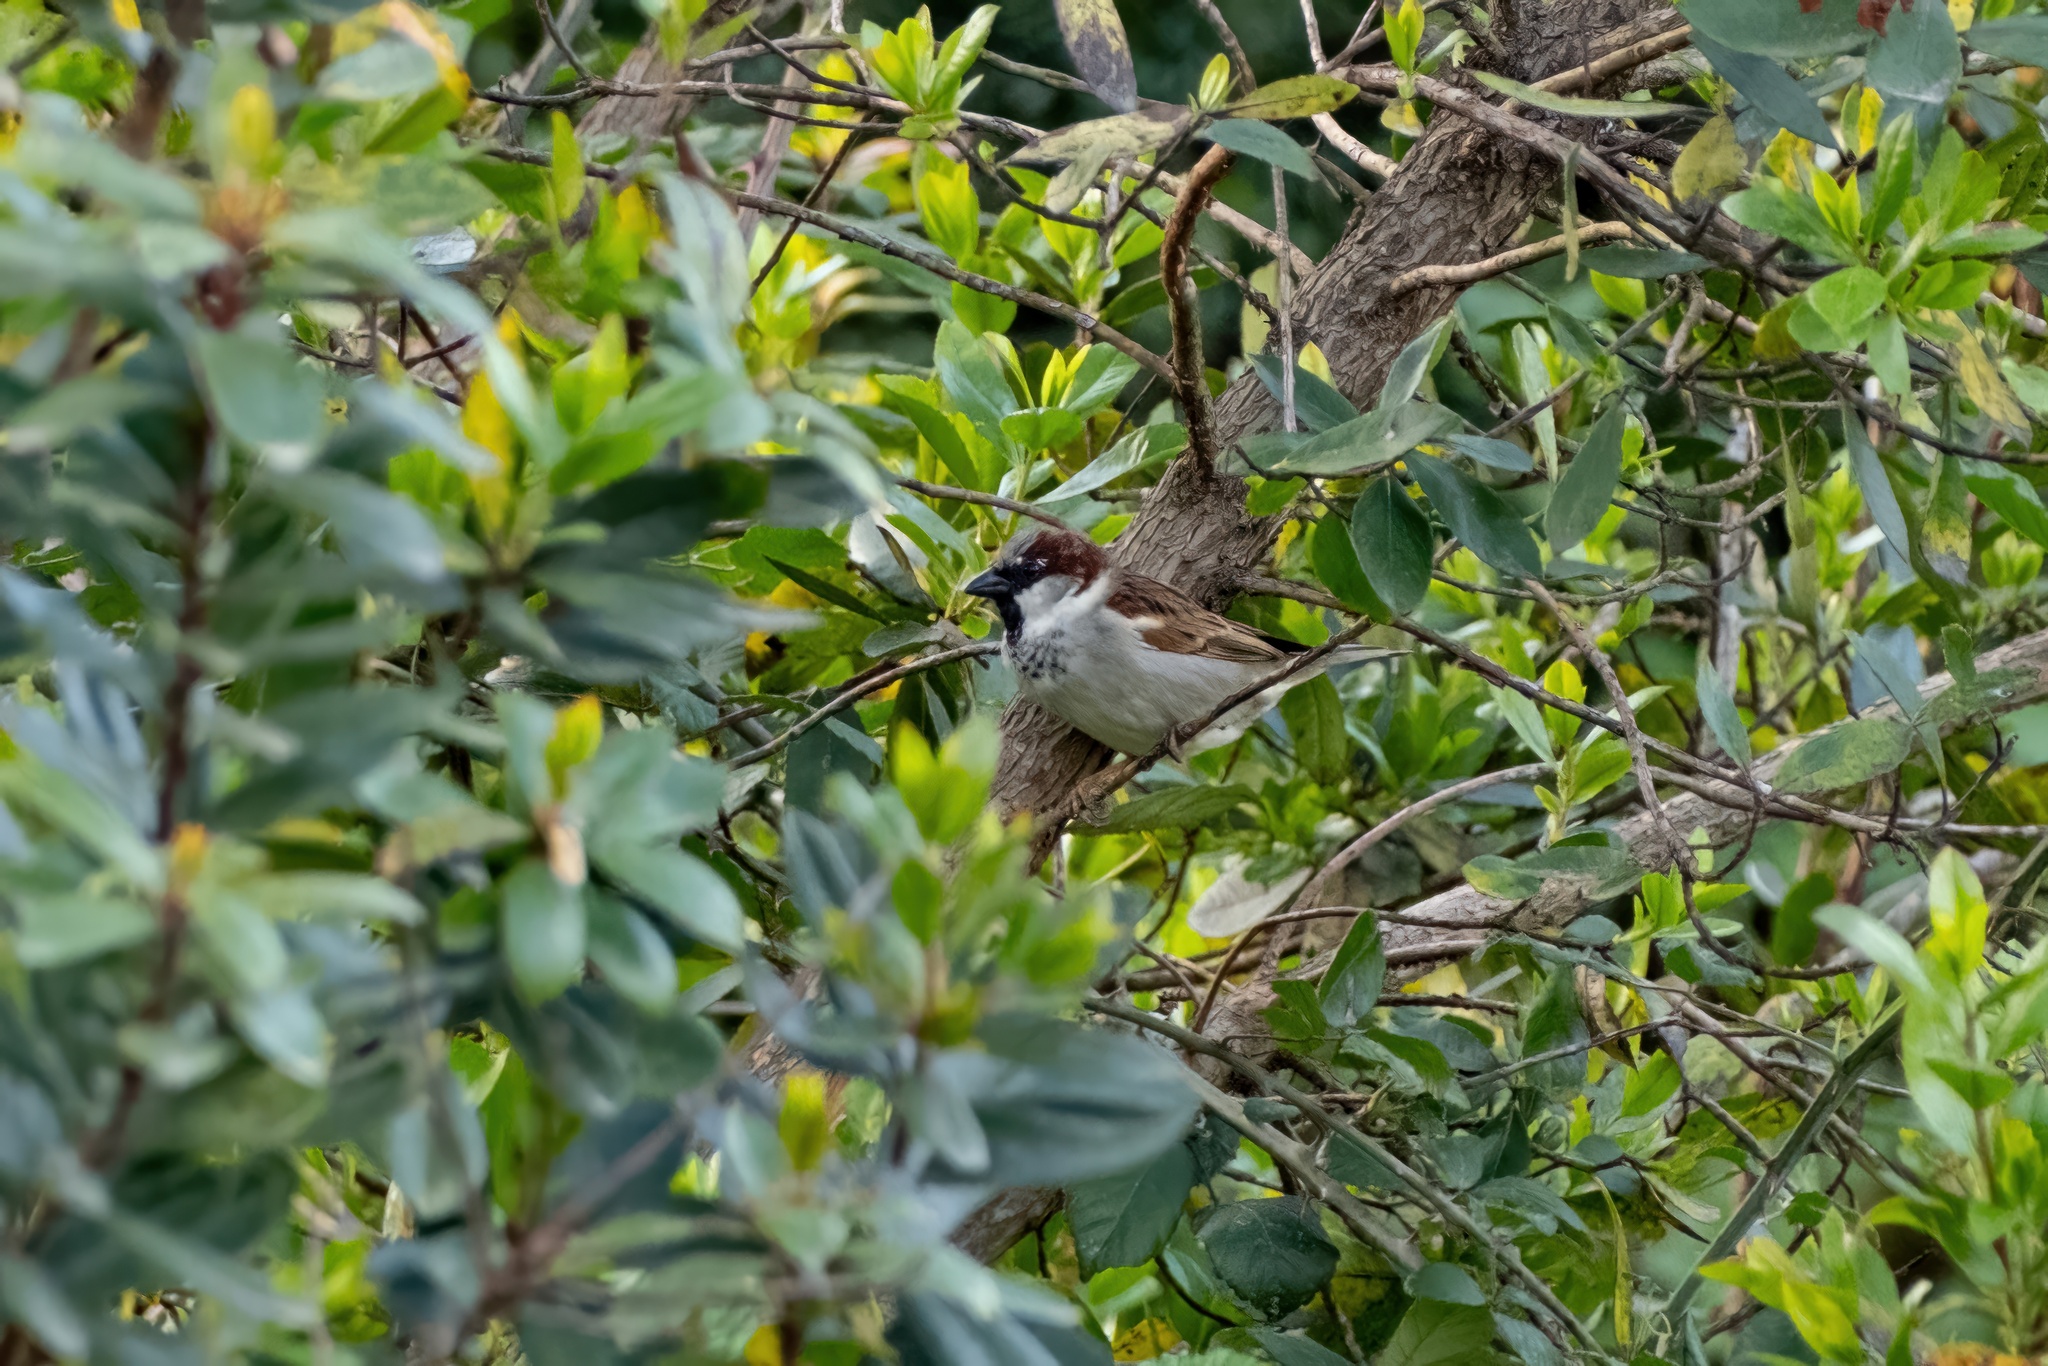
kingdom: Animalia
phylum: Chordata
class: Aves
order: Passeriformes
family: Passeridae
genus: Passer
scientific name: Passer domesticus
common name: House sparrow
